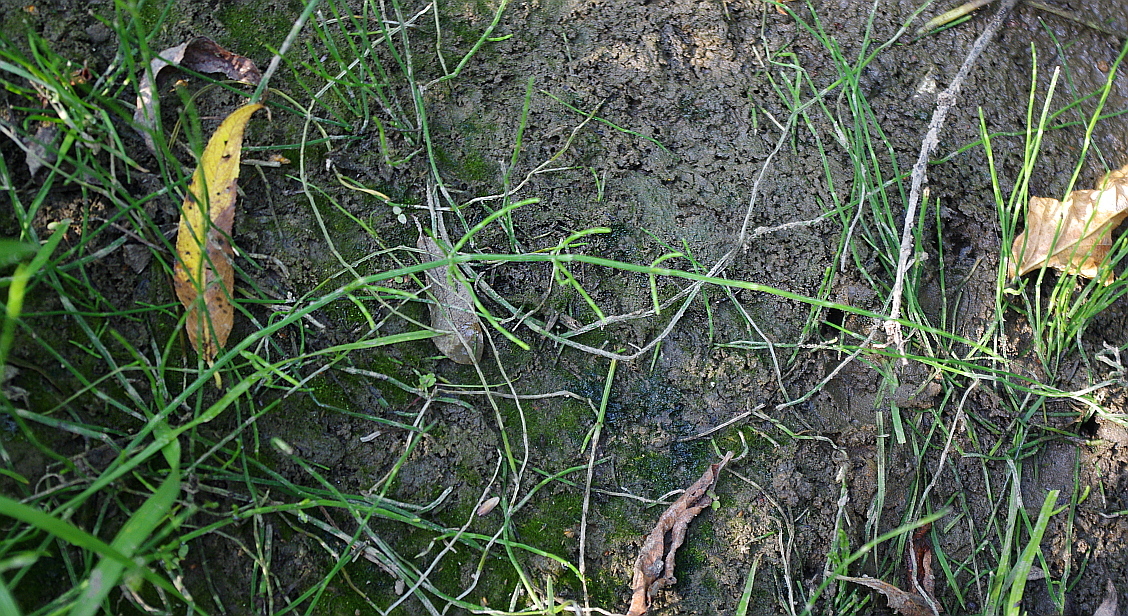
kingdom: Plantae
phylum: Tracheophyta
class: Polypodiopsida
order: Equisetales
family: Equisetaceae
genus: Equisetum
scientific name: Equisetum ramosissimum
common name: Branched horsetail
